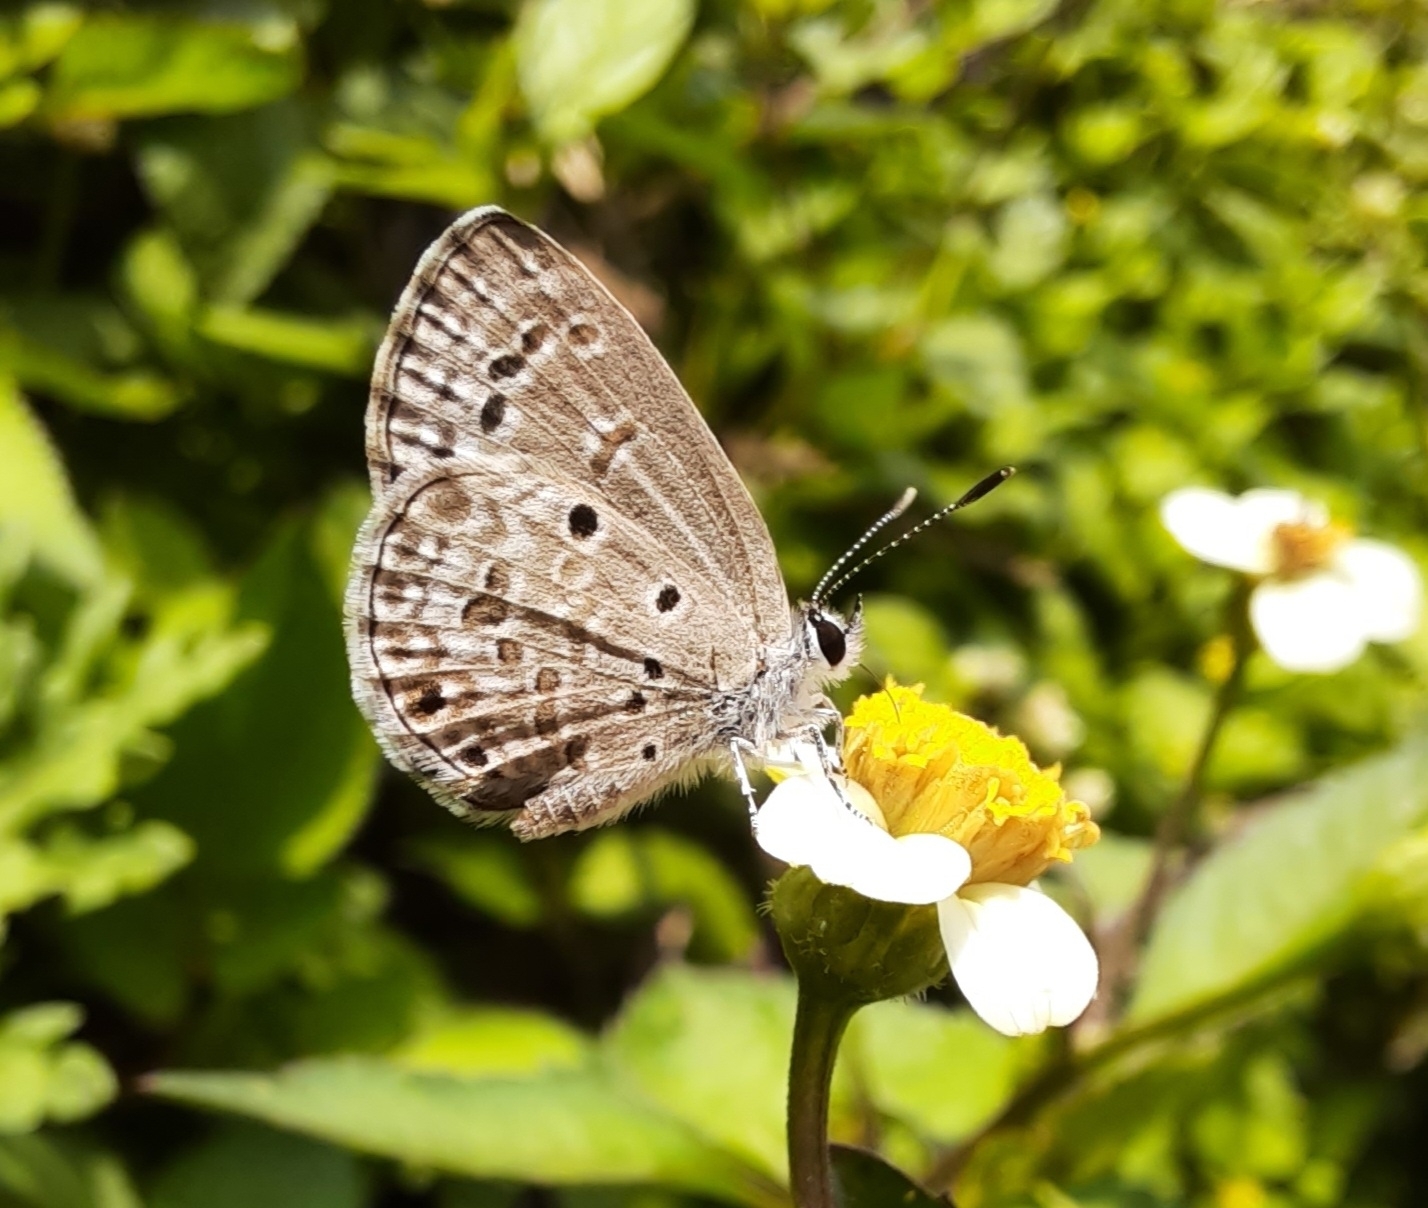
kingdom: Animalia
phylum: Arthropoda
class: Insecta
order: Lepidoptera
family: Lycaenidae
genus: Chilades
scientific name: Chilades laius
